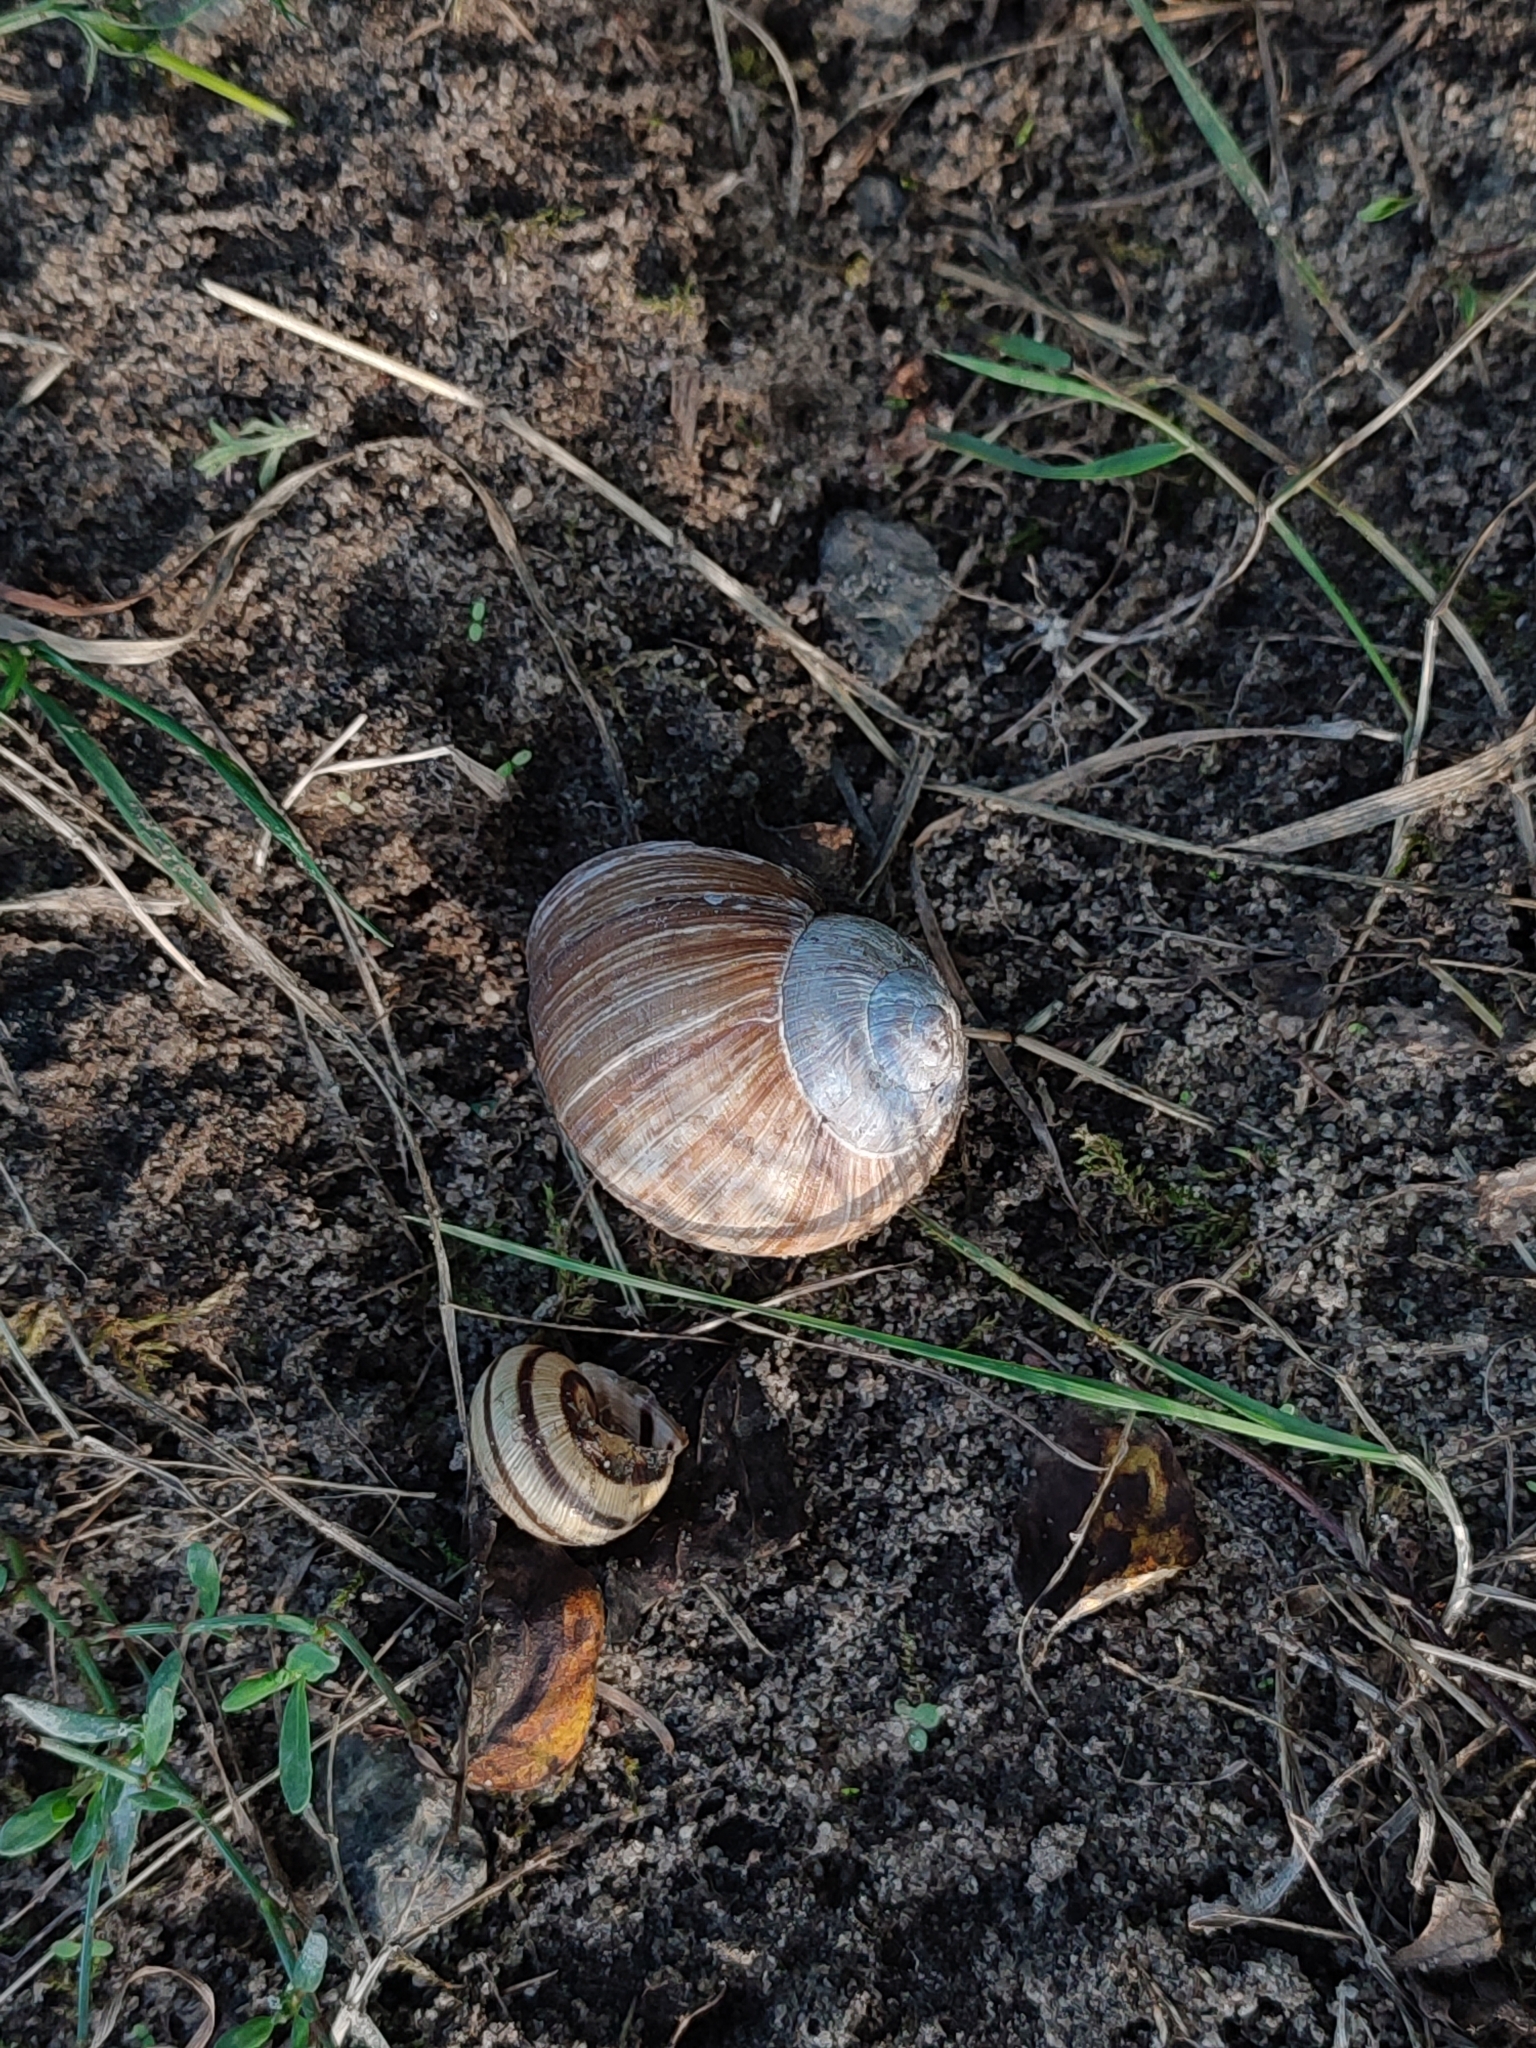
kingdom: Animalia
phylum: Mollusca
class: Gastropoda
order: Stylommatophora
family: Helicidae
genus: Helix
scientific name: Helix pomatia
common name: Roman snail
